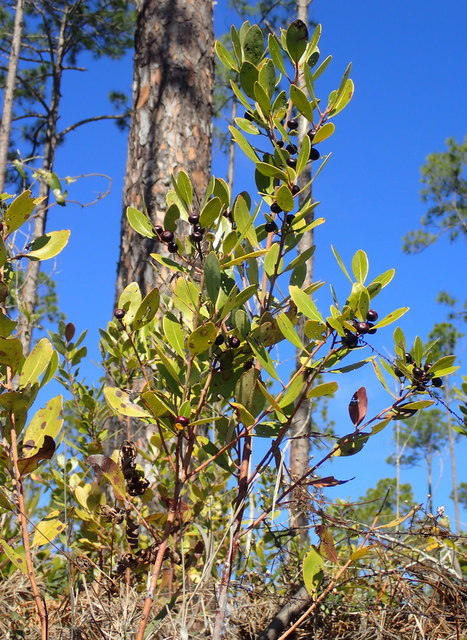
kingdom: Plantae
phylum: Tracheophyta
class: Magnoliopsida
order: Aquifoliales
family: Aquifoliaceae
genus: Ilex
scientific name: Ilex glabra
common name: Bitter gallberry
